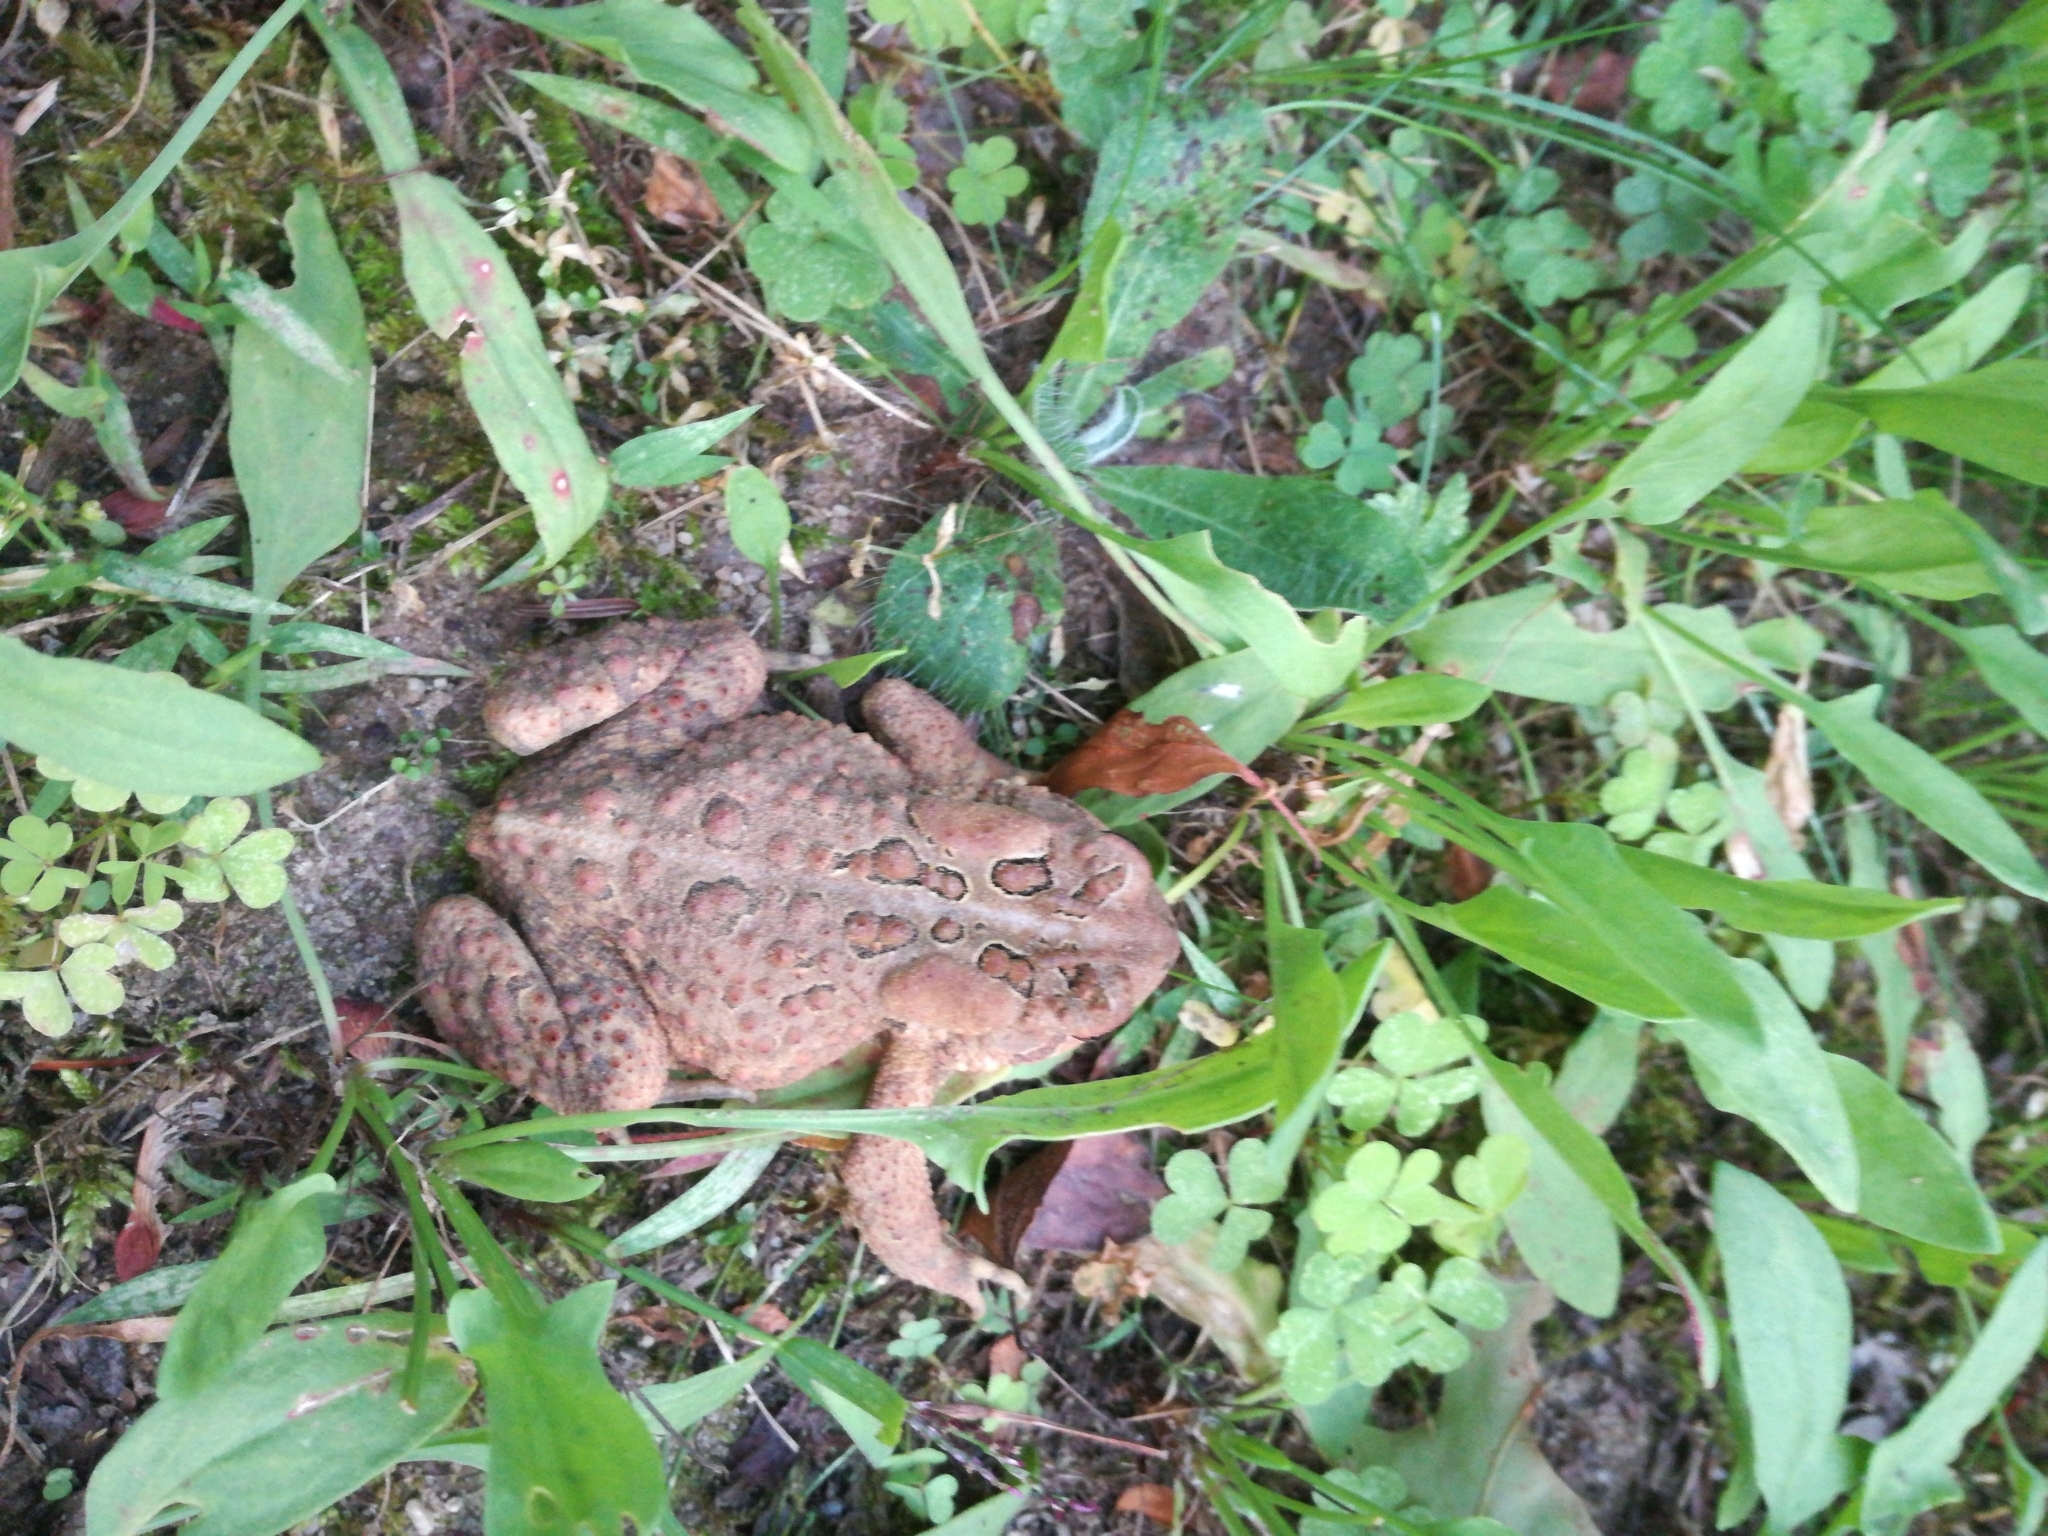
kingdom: Animalia
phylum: Chordata
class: Amphibia
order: Anura
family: Bufonidae
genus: Anaxyrus
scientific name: Anaxyrus americanus
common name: American toad
